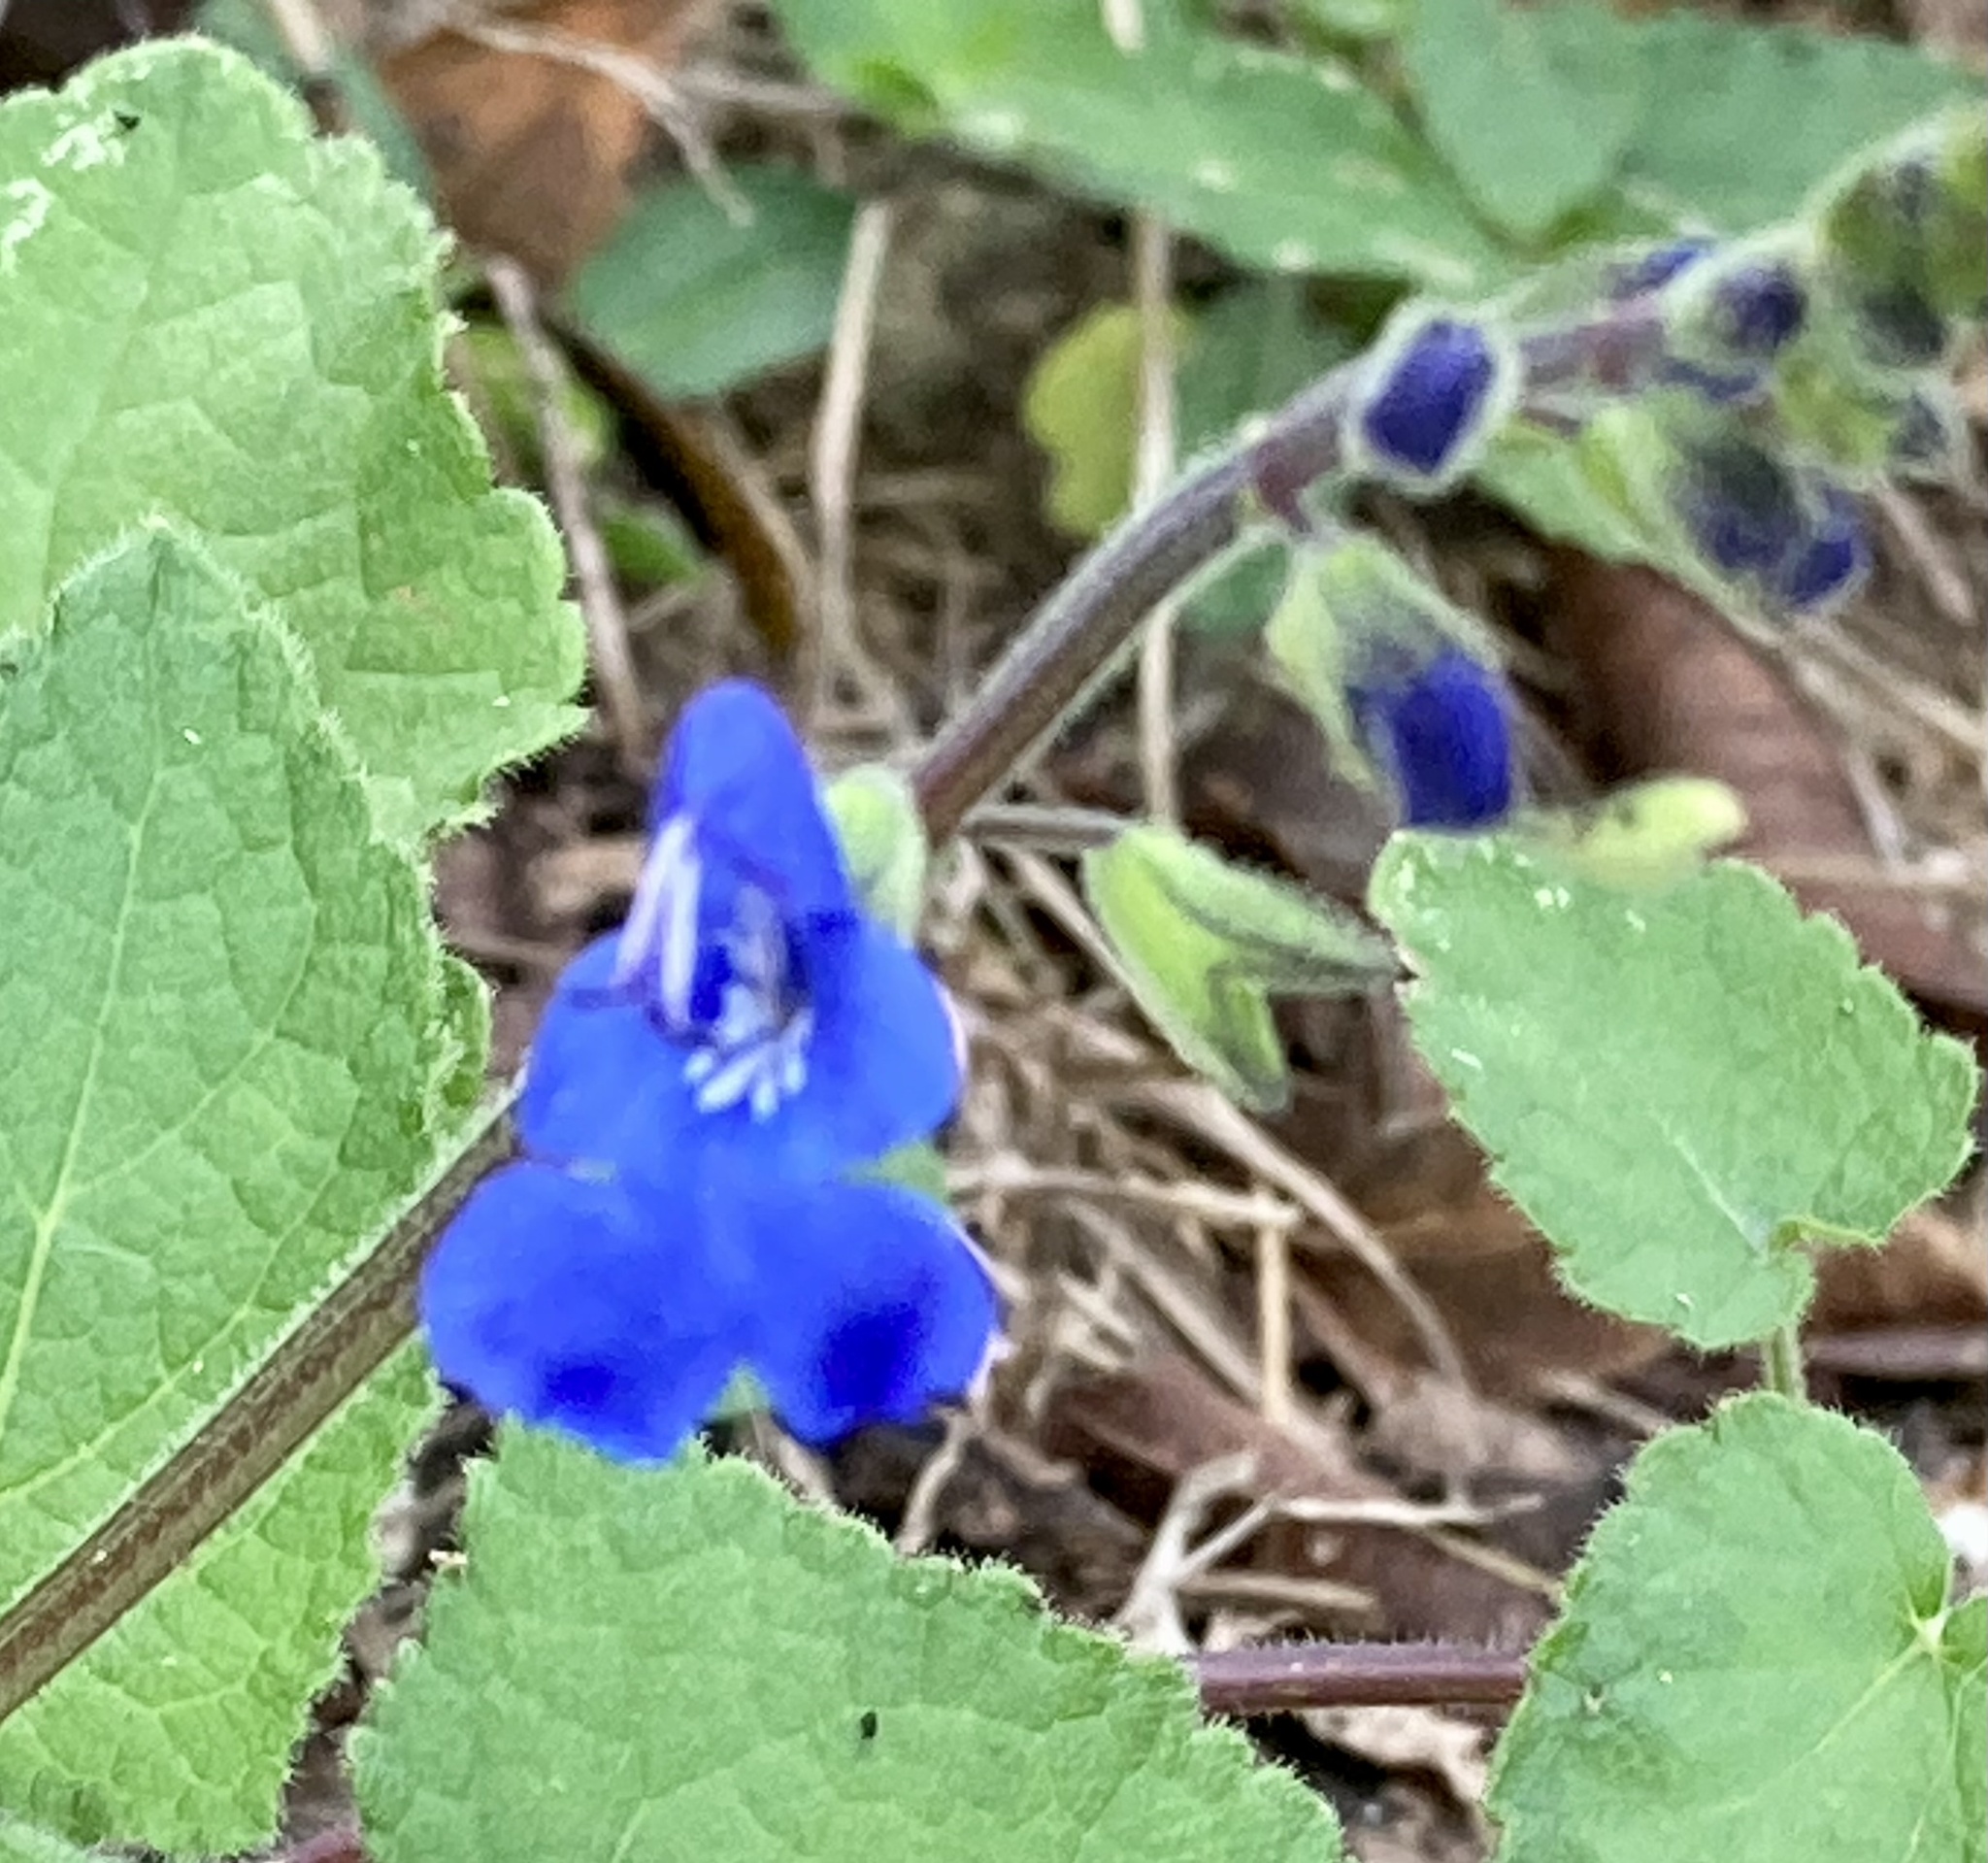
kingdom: Plantae
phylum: Tracheophyta
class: Magnoliopsida
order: Lamiales
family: Lamiaceae
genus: Salvia
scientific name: Salvia scutellarioides
